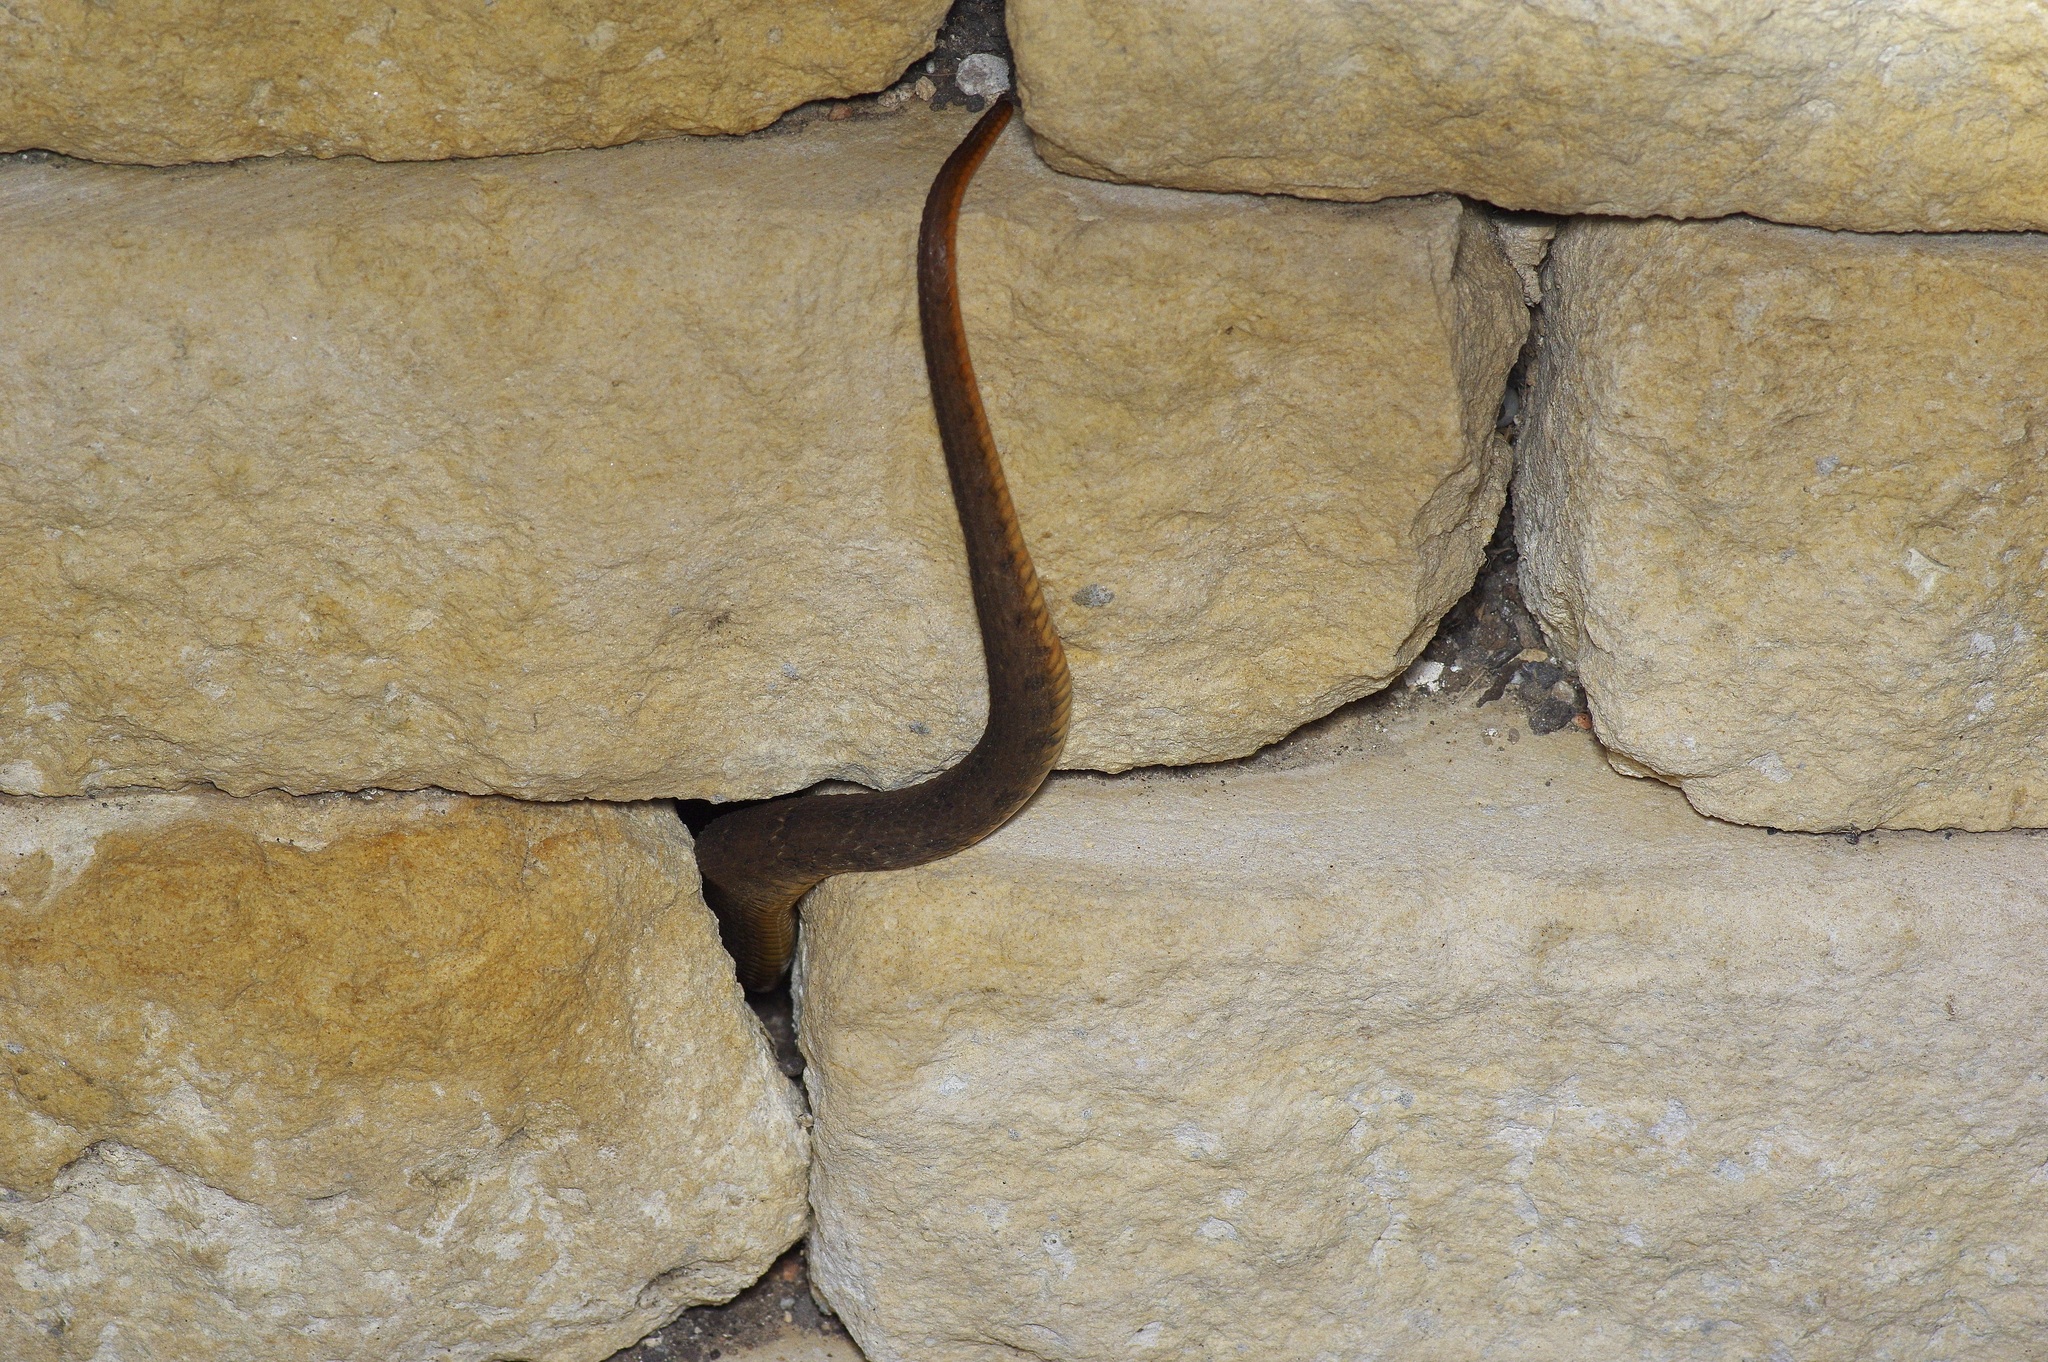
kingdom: Animalia
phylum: Chordata
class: Squamata
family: Colubridae
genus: Nerodia
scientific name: Nerodia erythrogaster
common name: Plainbelly water snake
